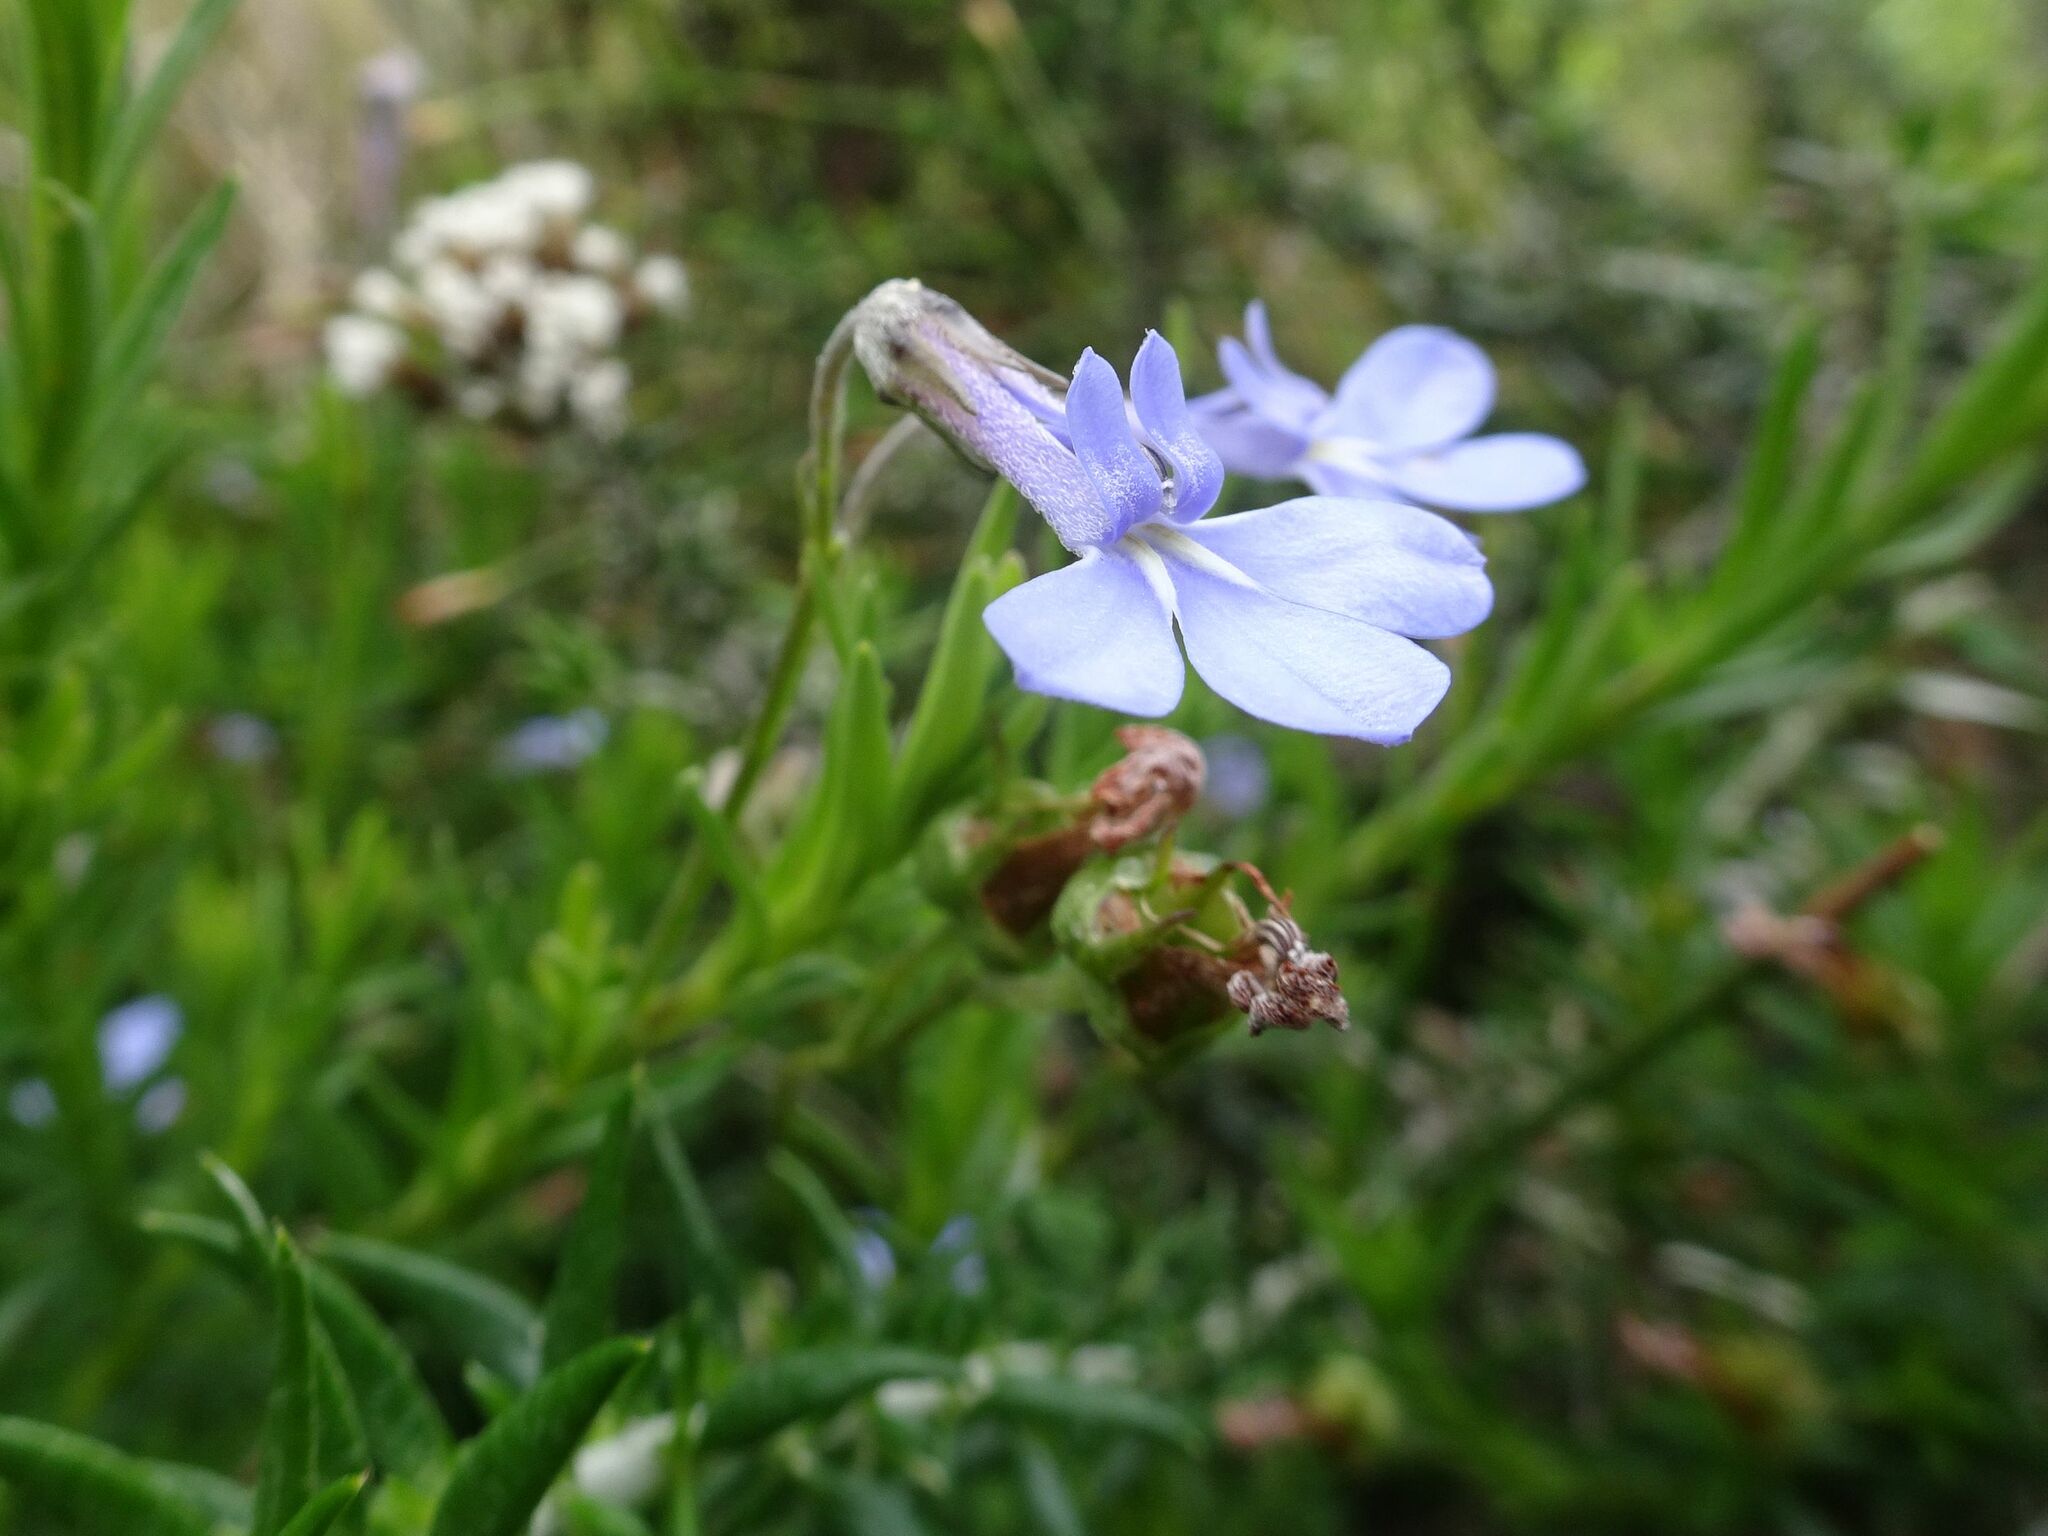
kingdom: Plantae
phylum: Tracheophyta
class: Magnoliopsida
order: Asterales
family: Campanulaceae
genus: Lobelia
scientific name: Lobelia pinifolia
